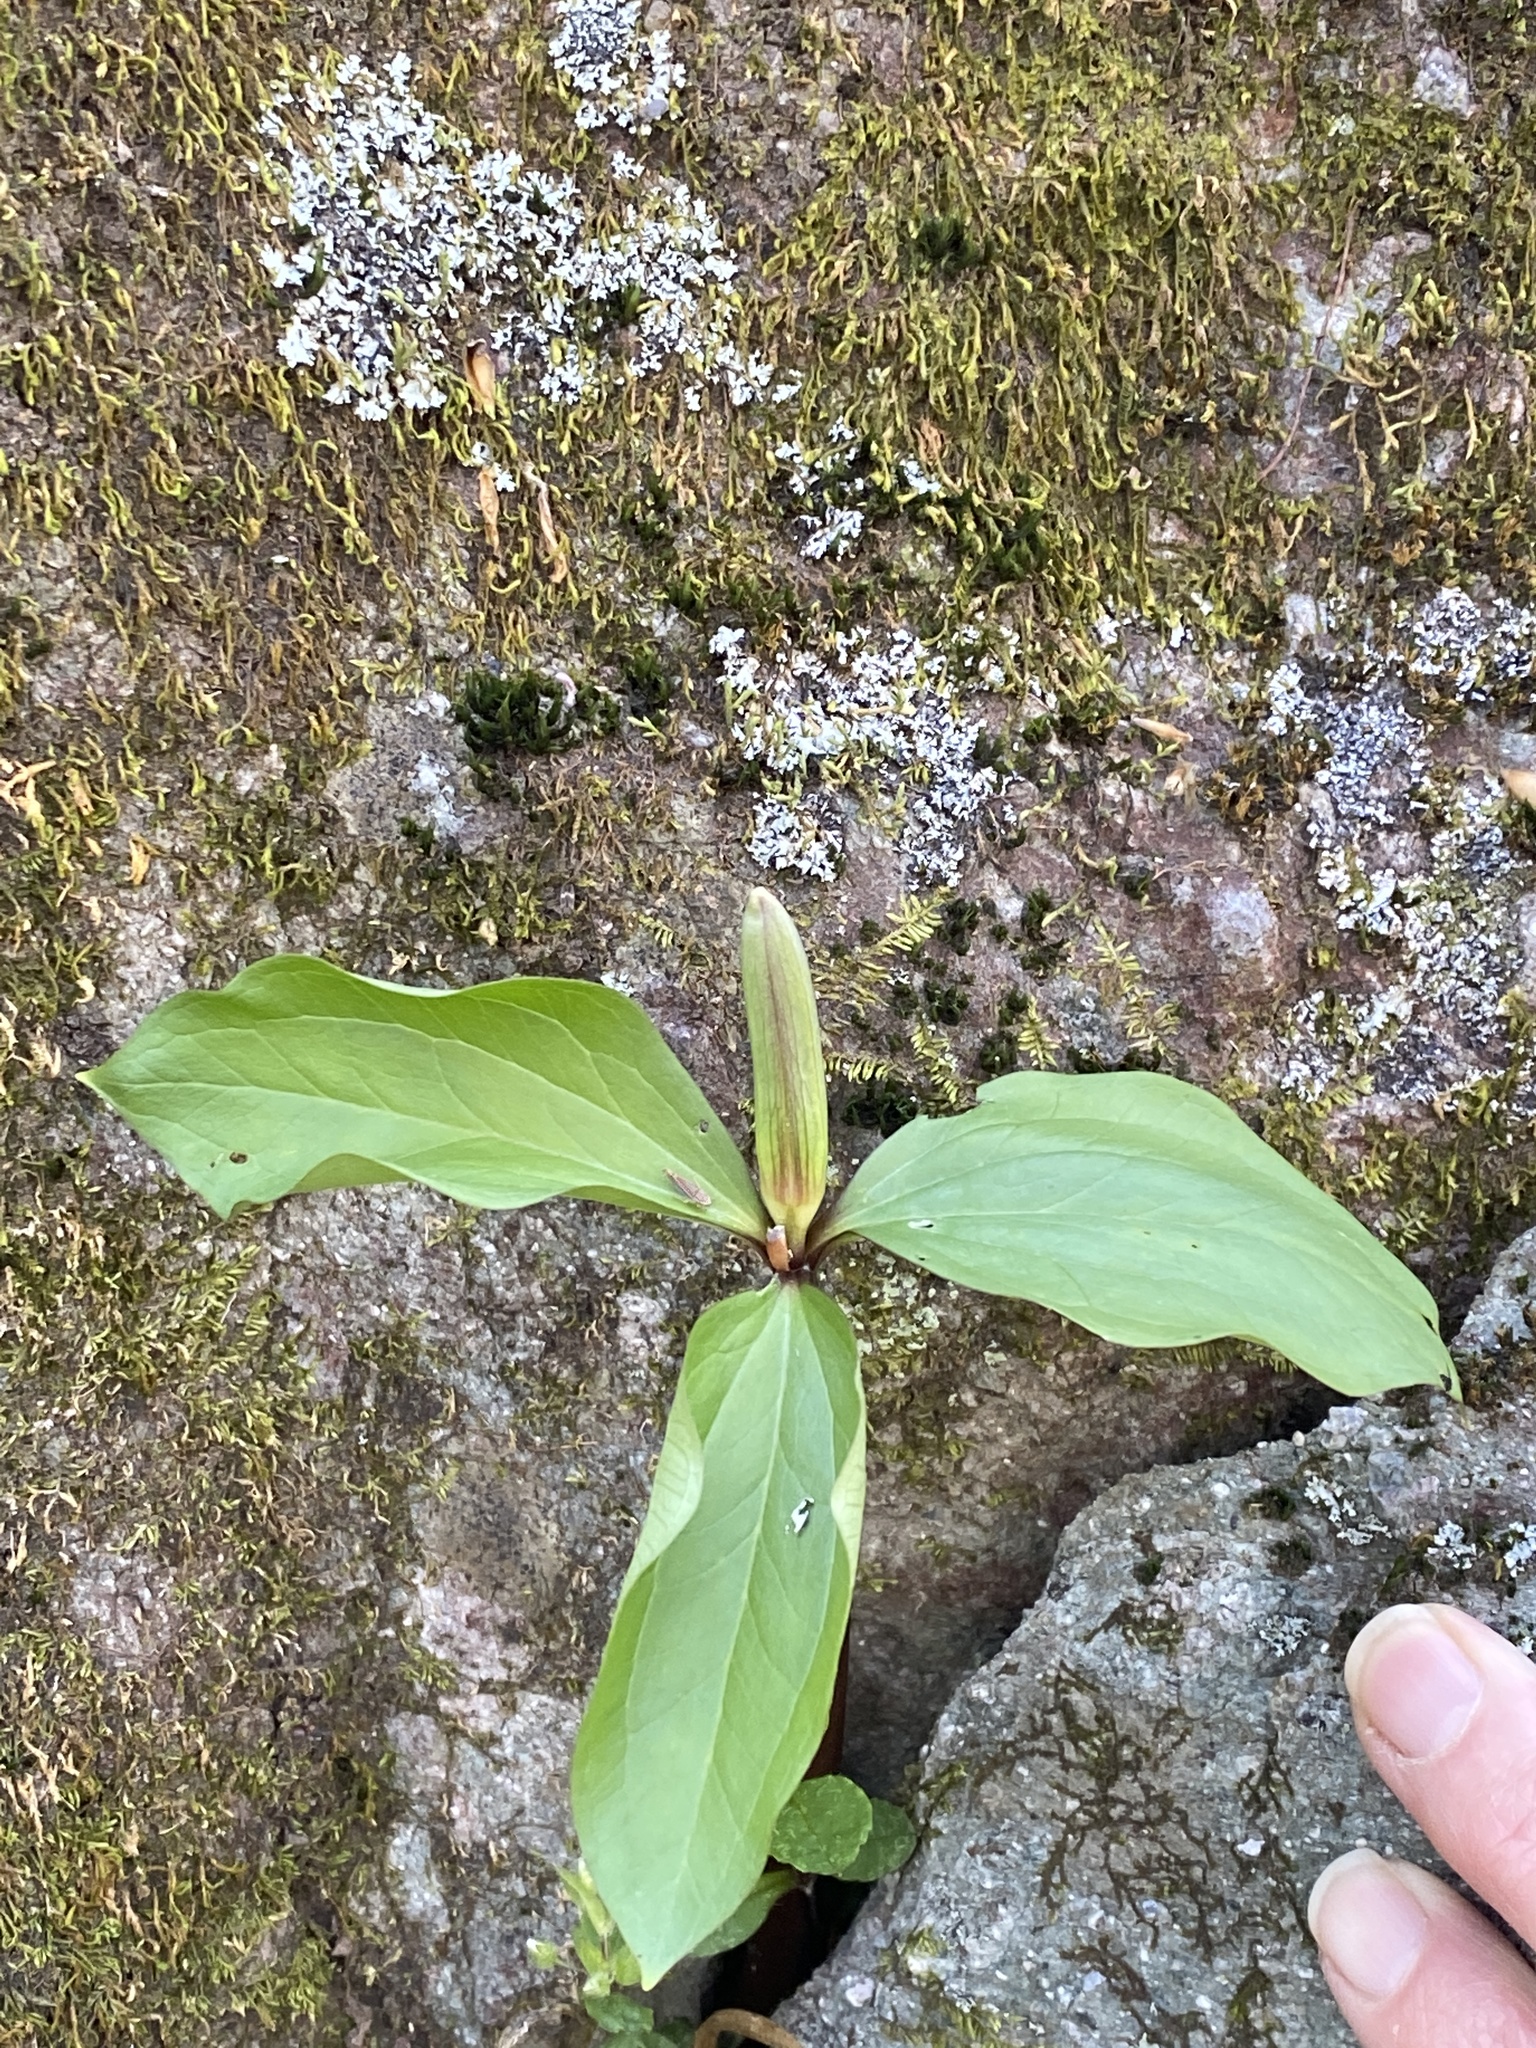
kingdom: Plantae
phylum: Tracheophyta
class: Liliopsida
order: Liliales
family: Melanthiaceae
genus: Trillium
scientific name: Trillium catesbaei
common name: Bashful trillium
